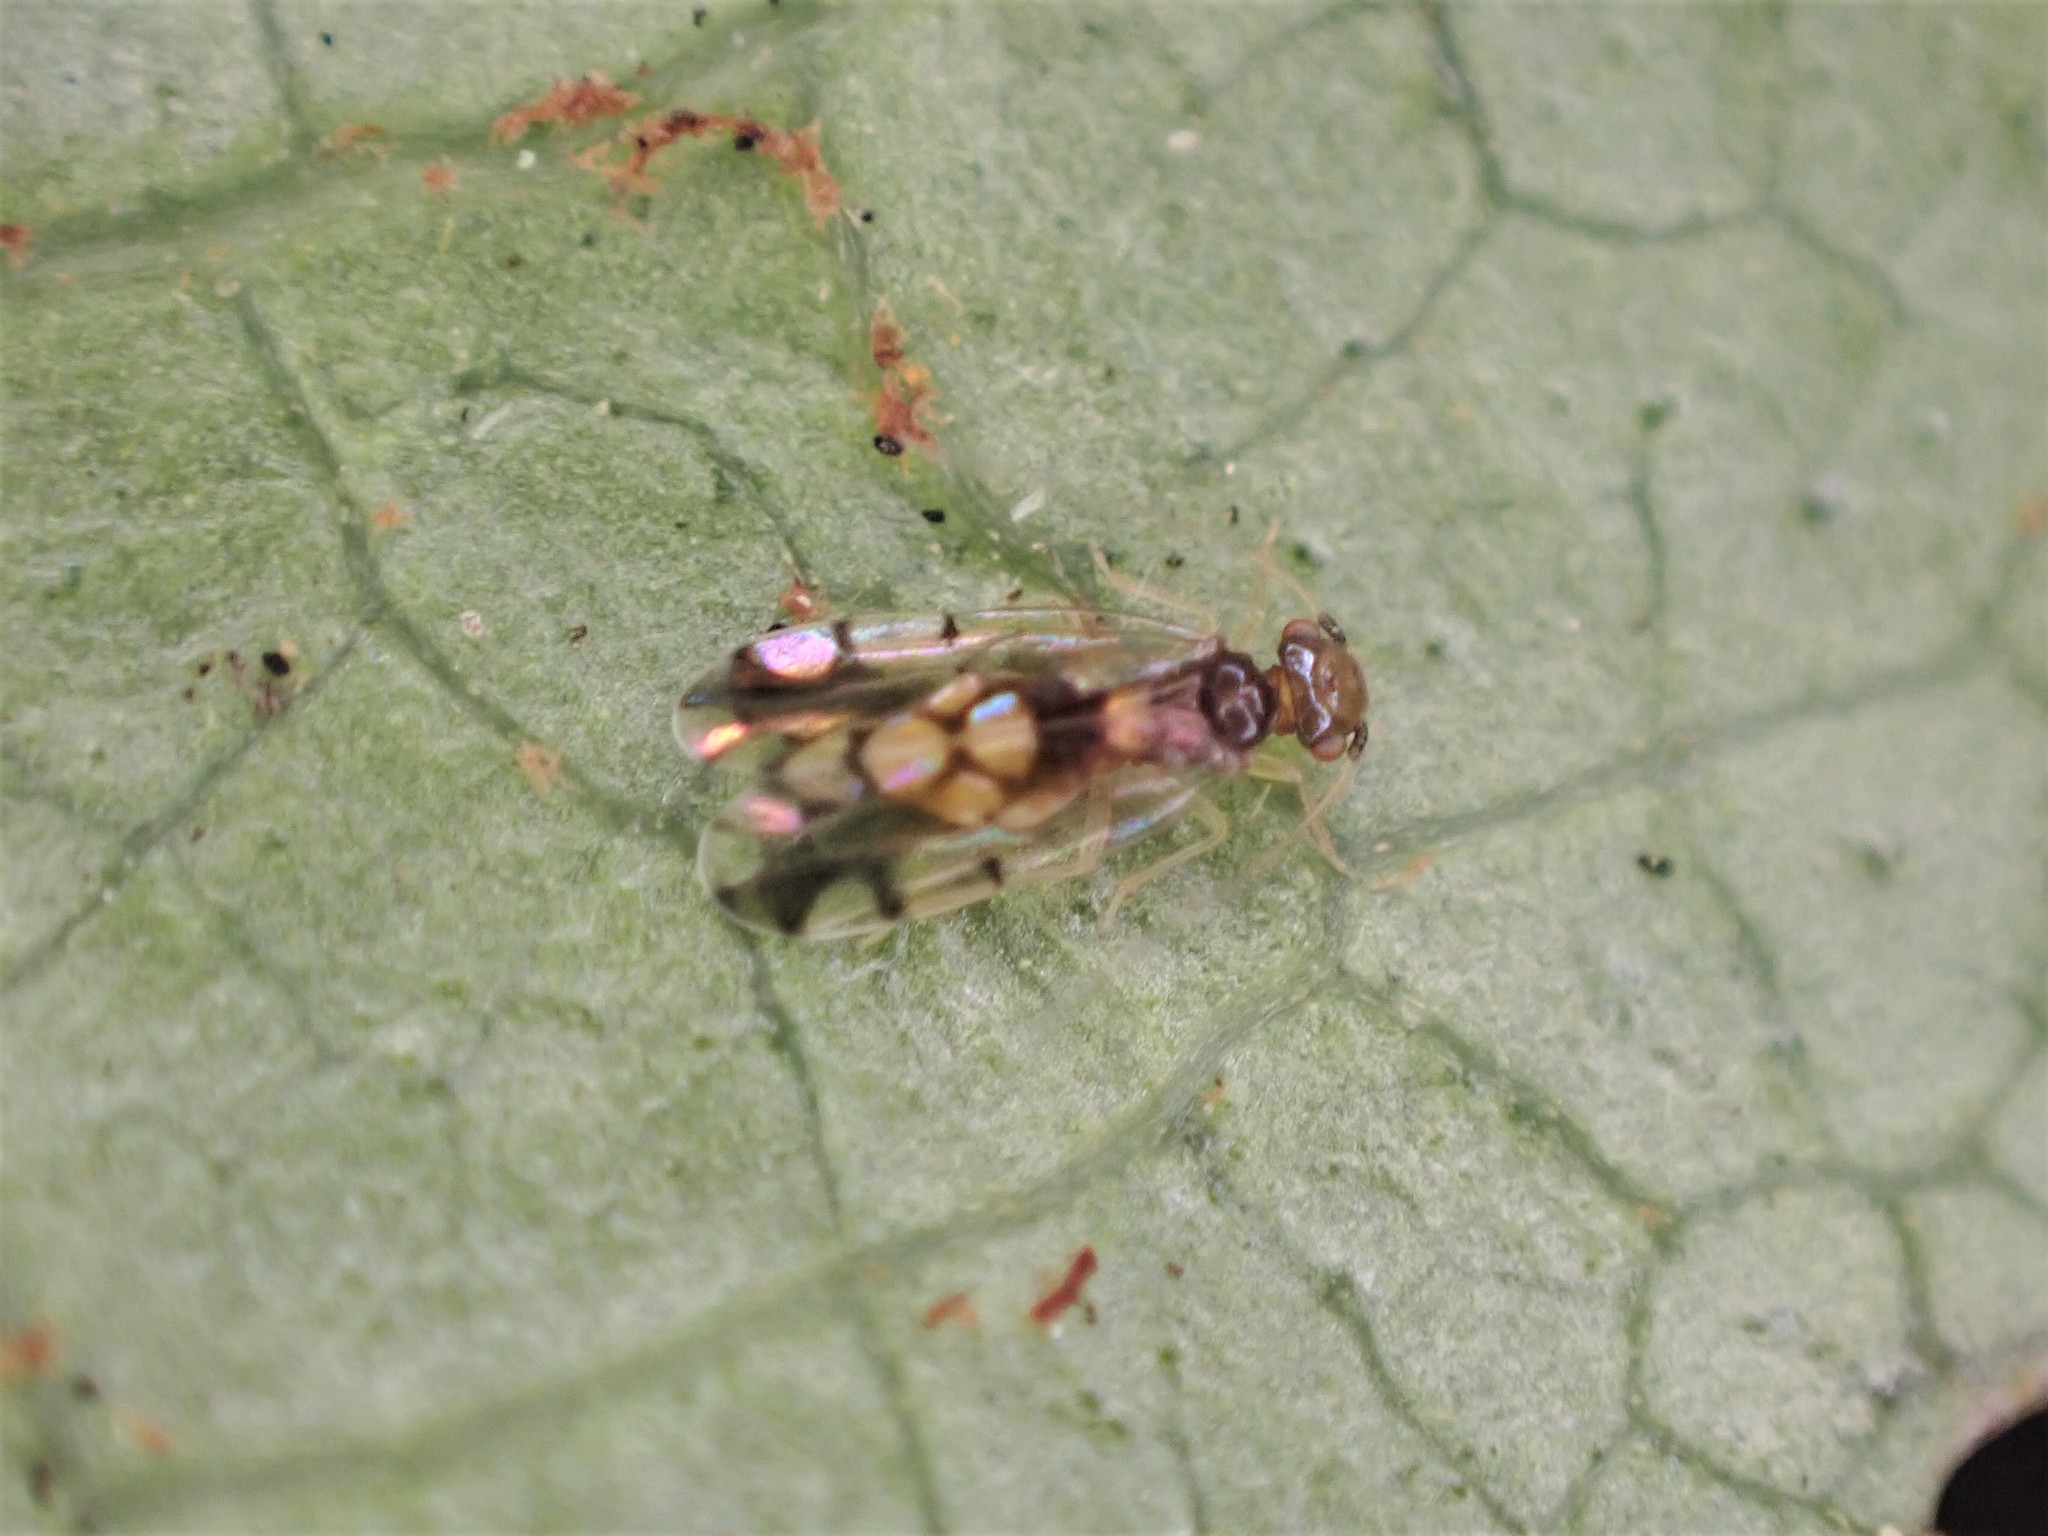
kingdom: Animalia
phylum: Arthropoda
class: Insecta
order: Psocodea
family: Ectopsocidae
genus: Ectopsocus
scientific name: Ectopsocus gracilis
